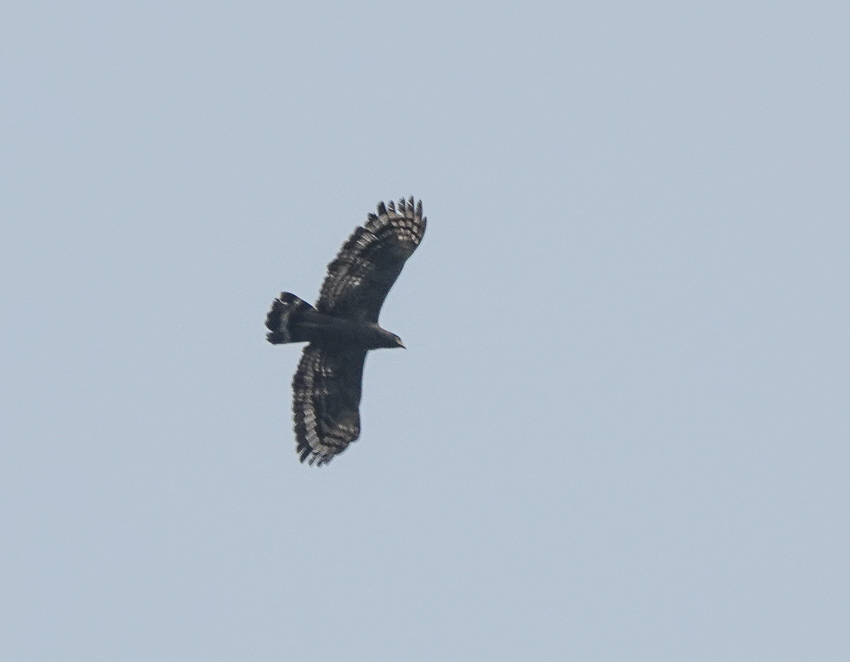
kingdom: Animalia
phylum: Chordata
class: Aves
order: Accipitriformes
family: Accipitridae
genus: Spilornis
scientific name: Spilornis cheela
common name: Crested serpent eagle
